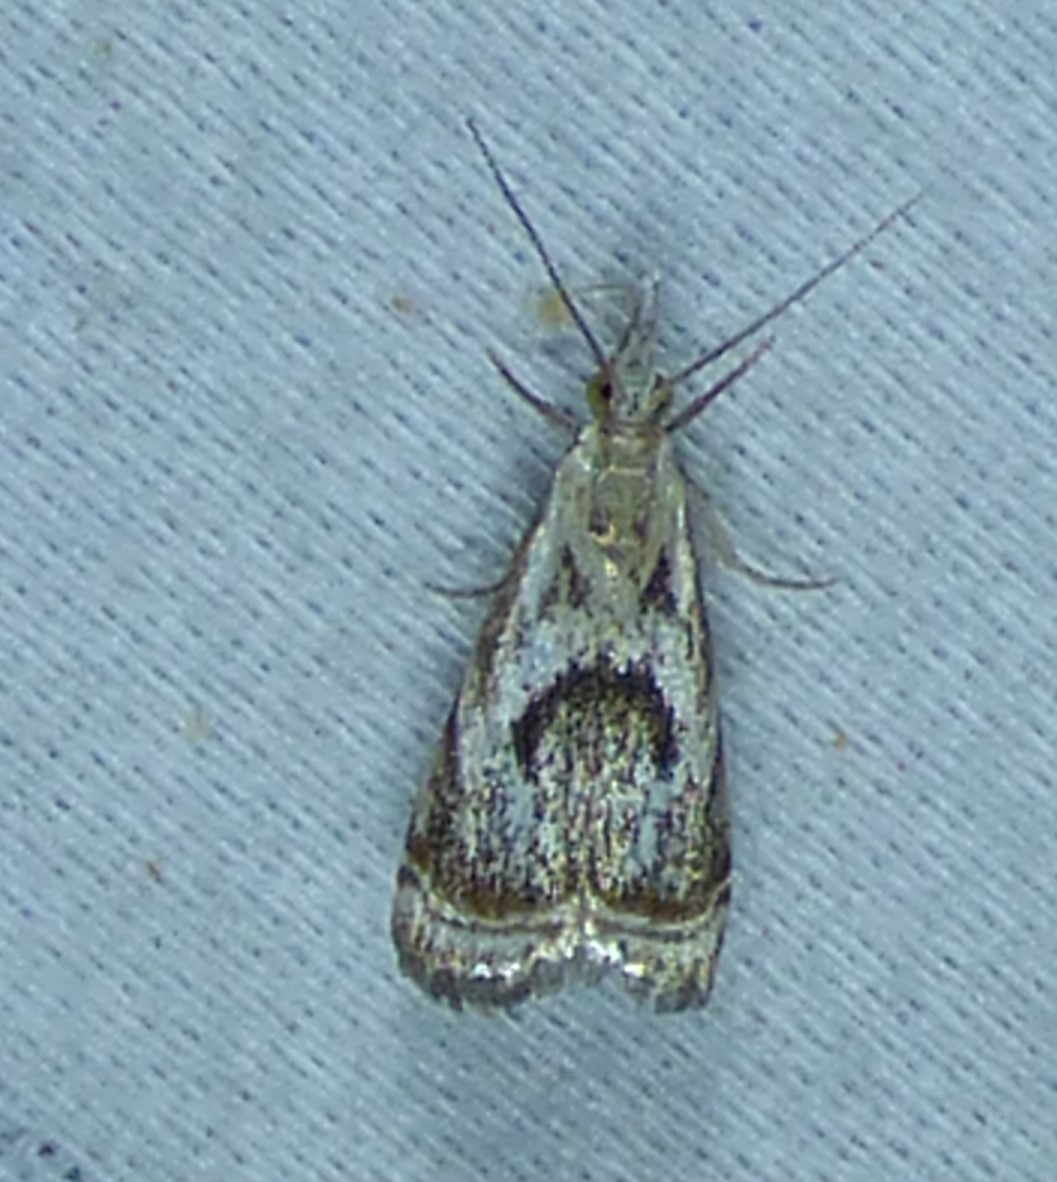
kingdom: Animalia
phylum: Arthropoda
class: Insecta
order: Lepidoptera
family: Crambidae
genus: Microcrambus
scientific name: Microcrambus elegans
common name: Elegant grass-veneer
